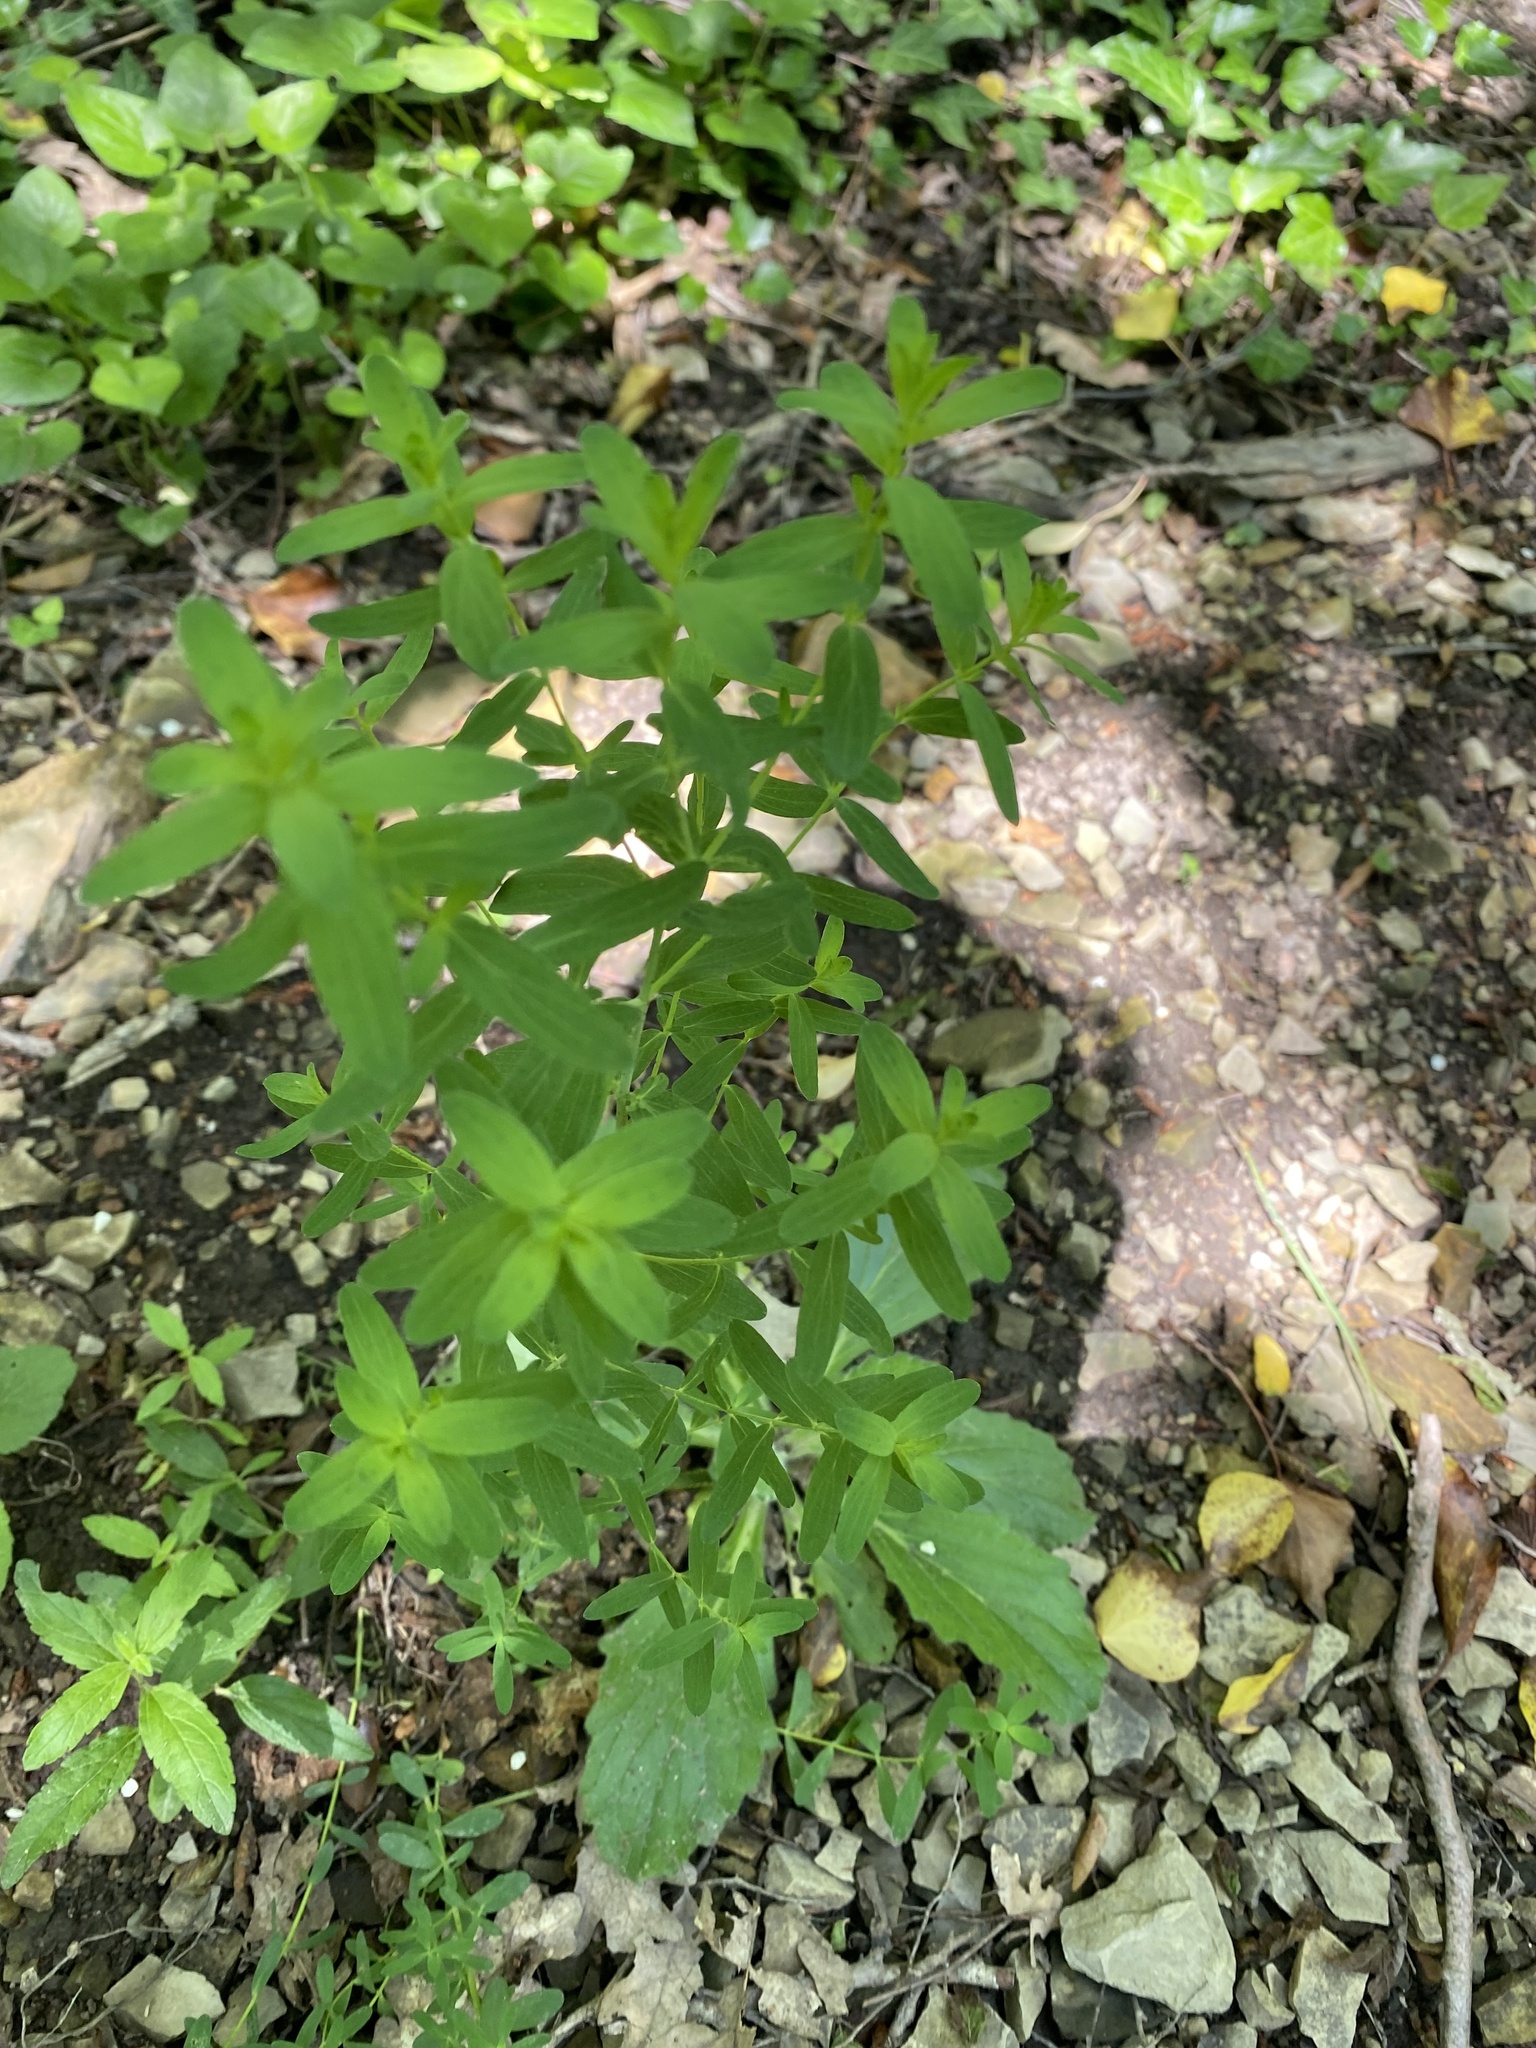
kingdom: Plantae
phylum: Tracheophyta
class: Magnoliopsida
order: Malpighiales
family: Hypericaceae
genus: Hypericum
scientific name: Hypericum perforatum
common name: Common st. johnswort
